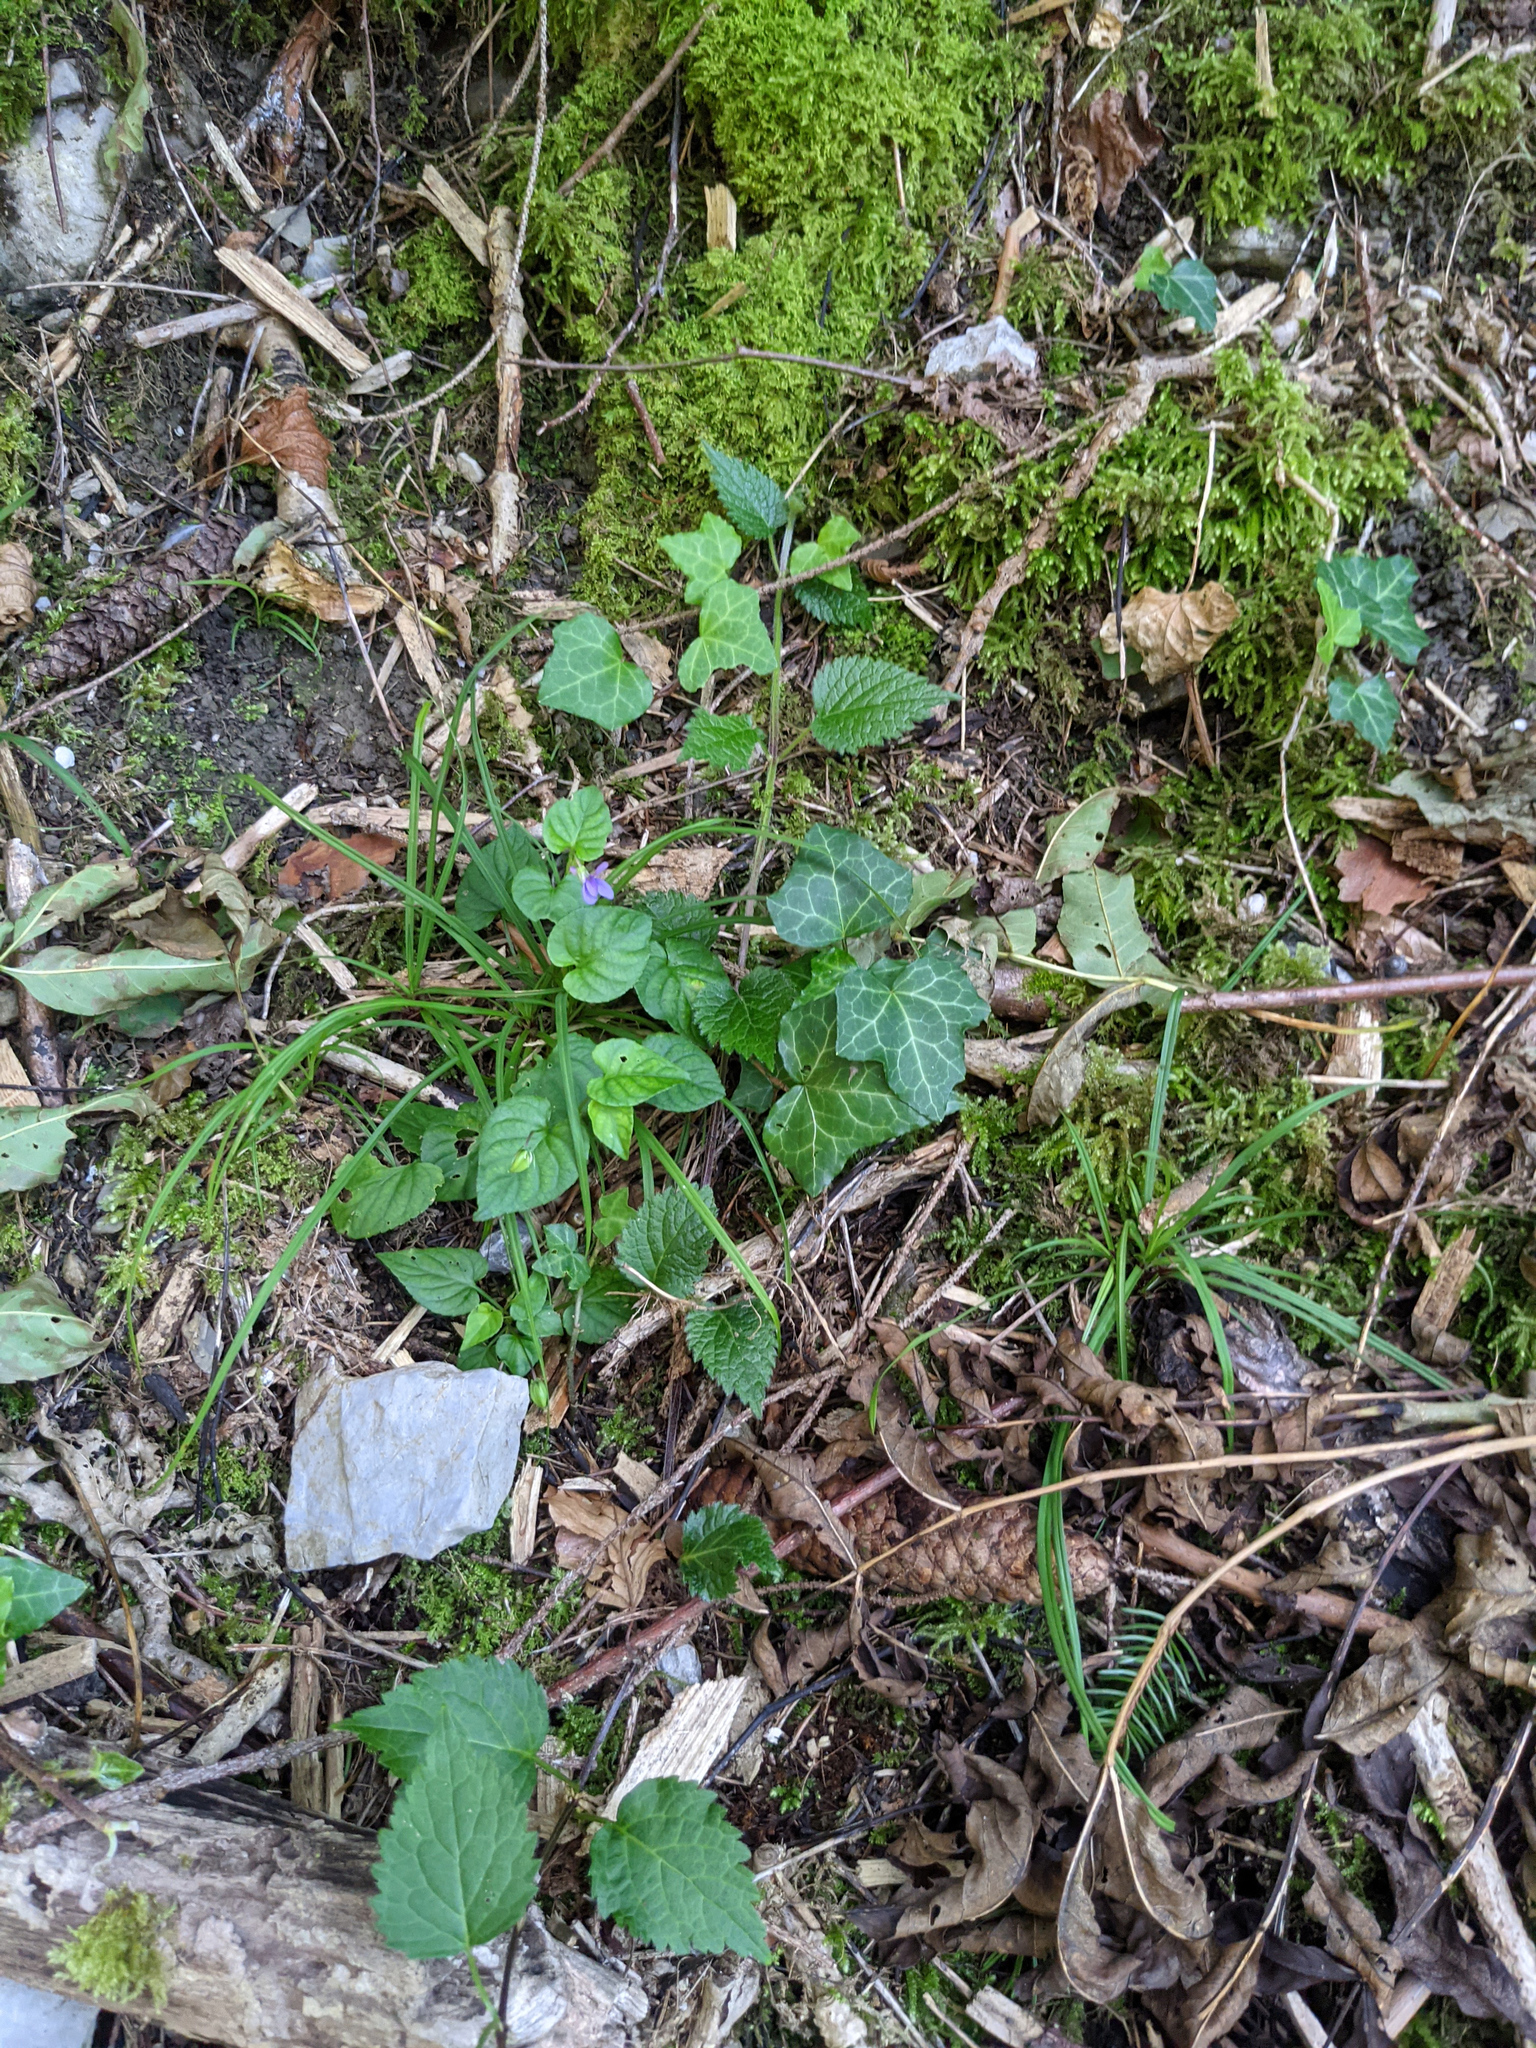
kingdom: Plantae
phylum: Tracheophyta
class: Magnoliopsida
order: Apiales
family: Araliaceae
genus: Hedera
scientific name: Hedera helix
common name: Ivy
